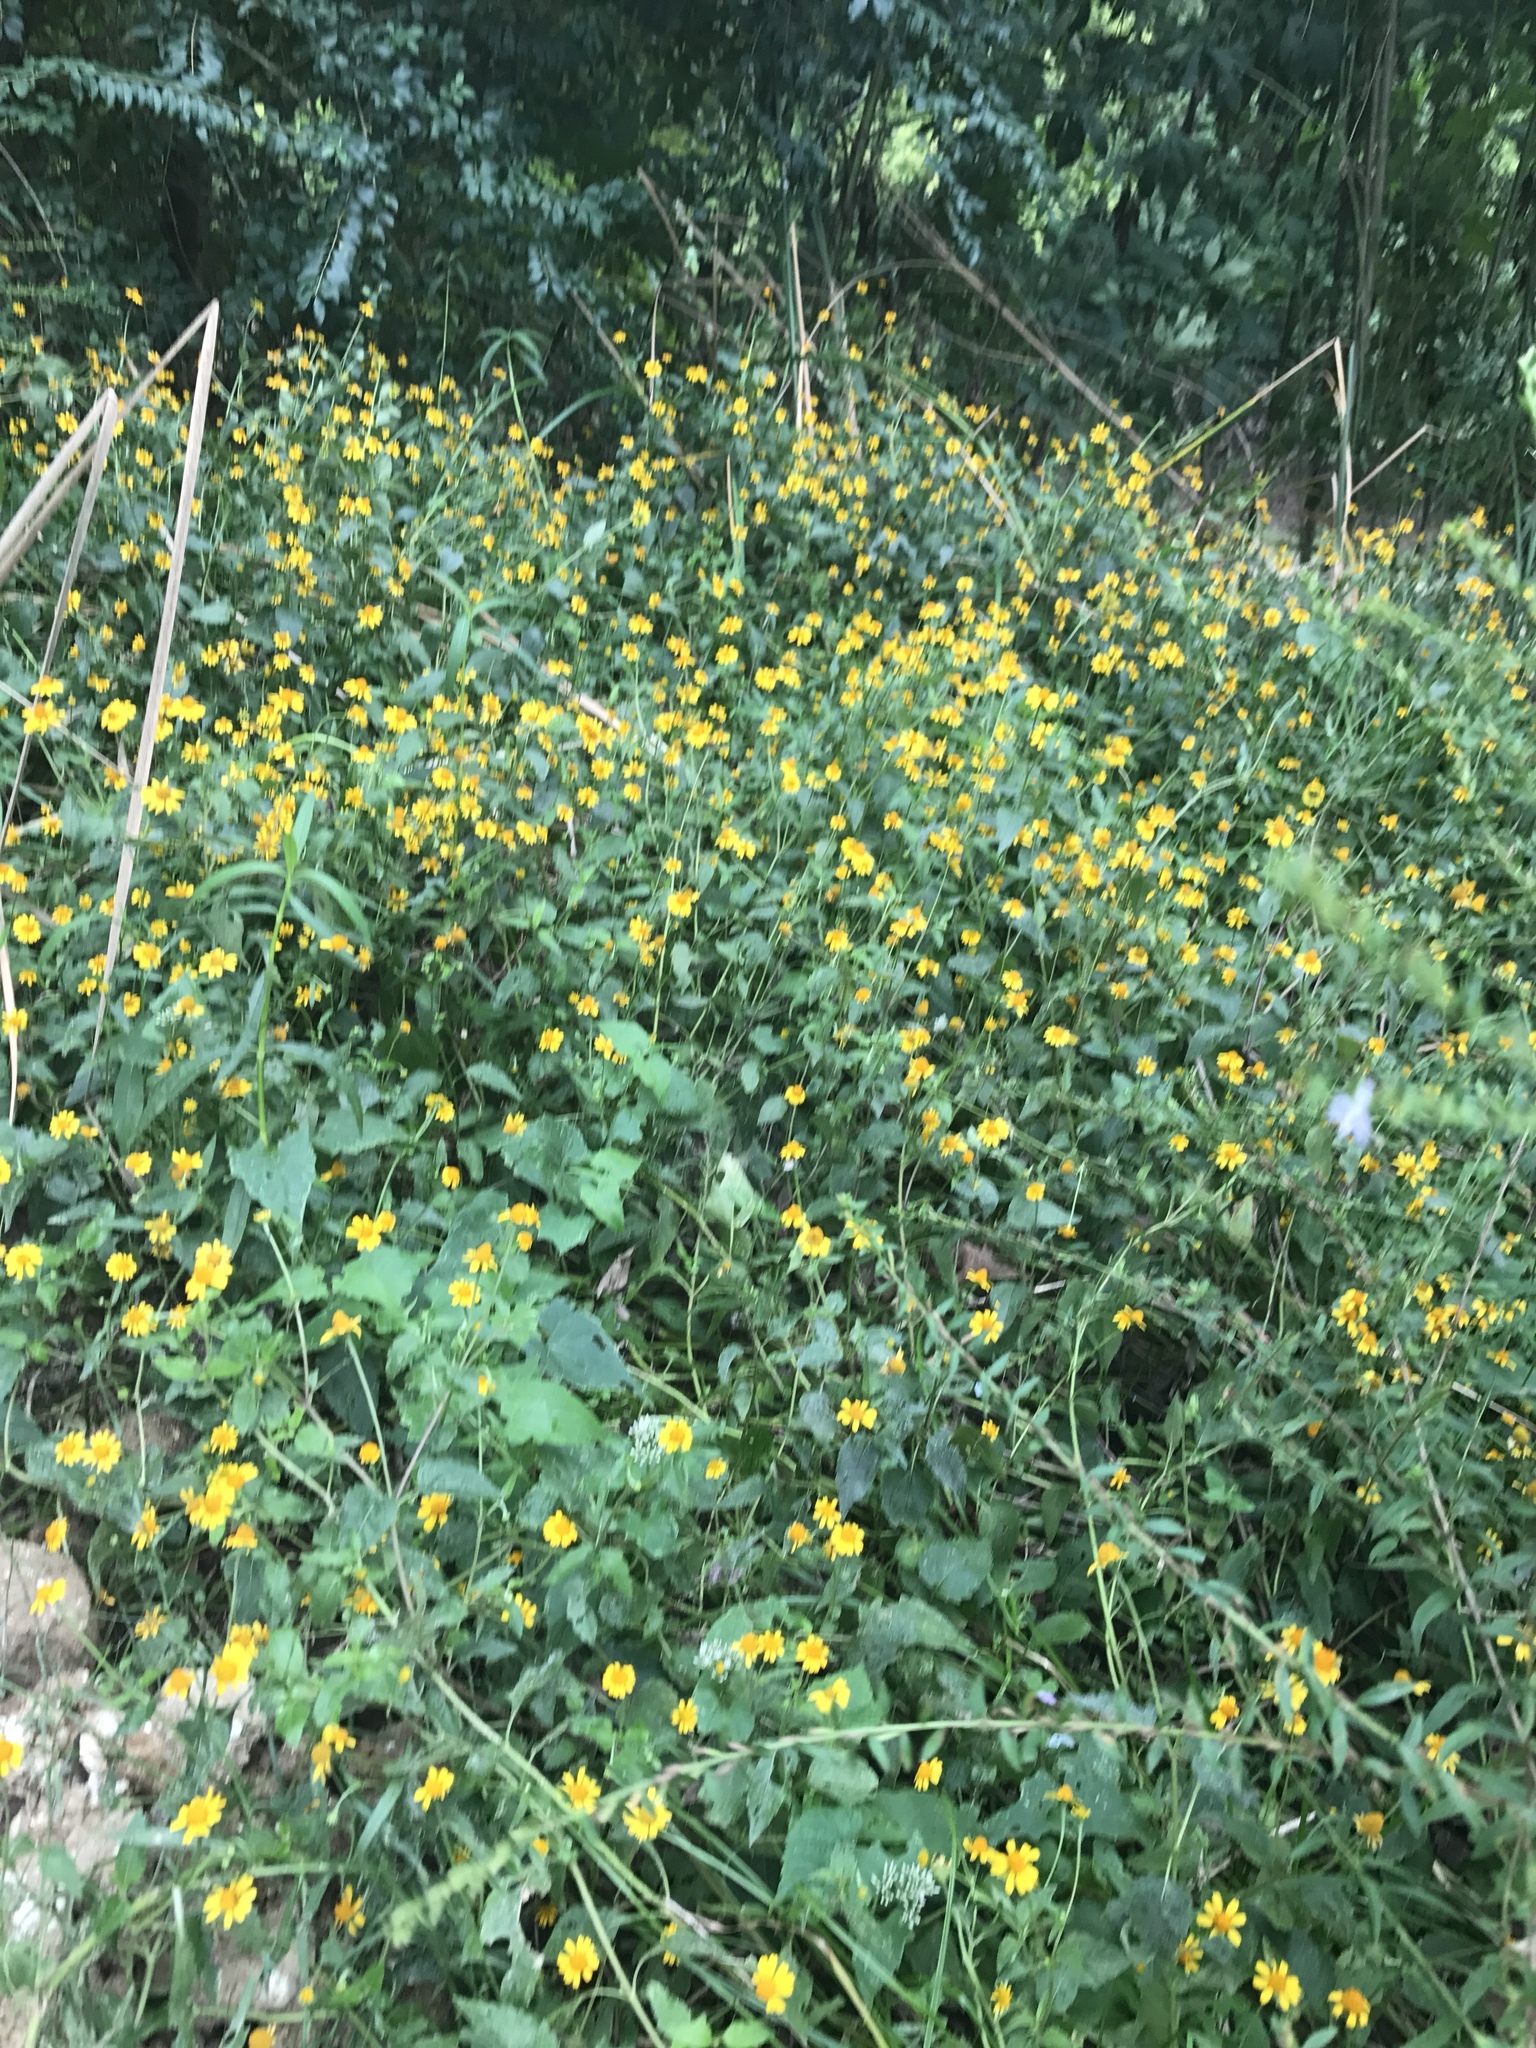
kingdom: Plantae
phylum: Tracheophyta
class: Magnoliopsida
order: Asterales
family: Asteraceae
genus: Acmella
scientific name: Acmella repens
